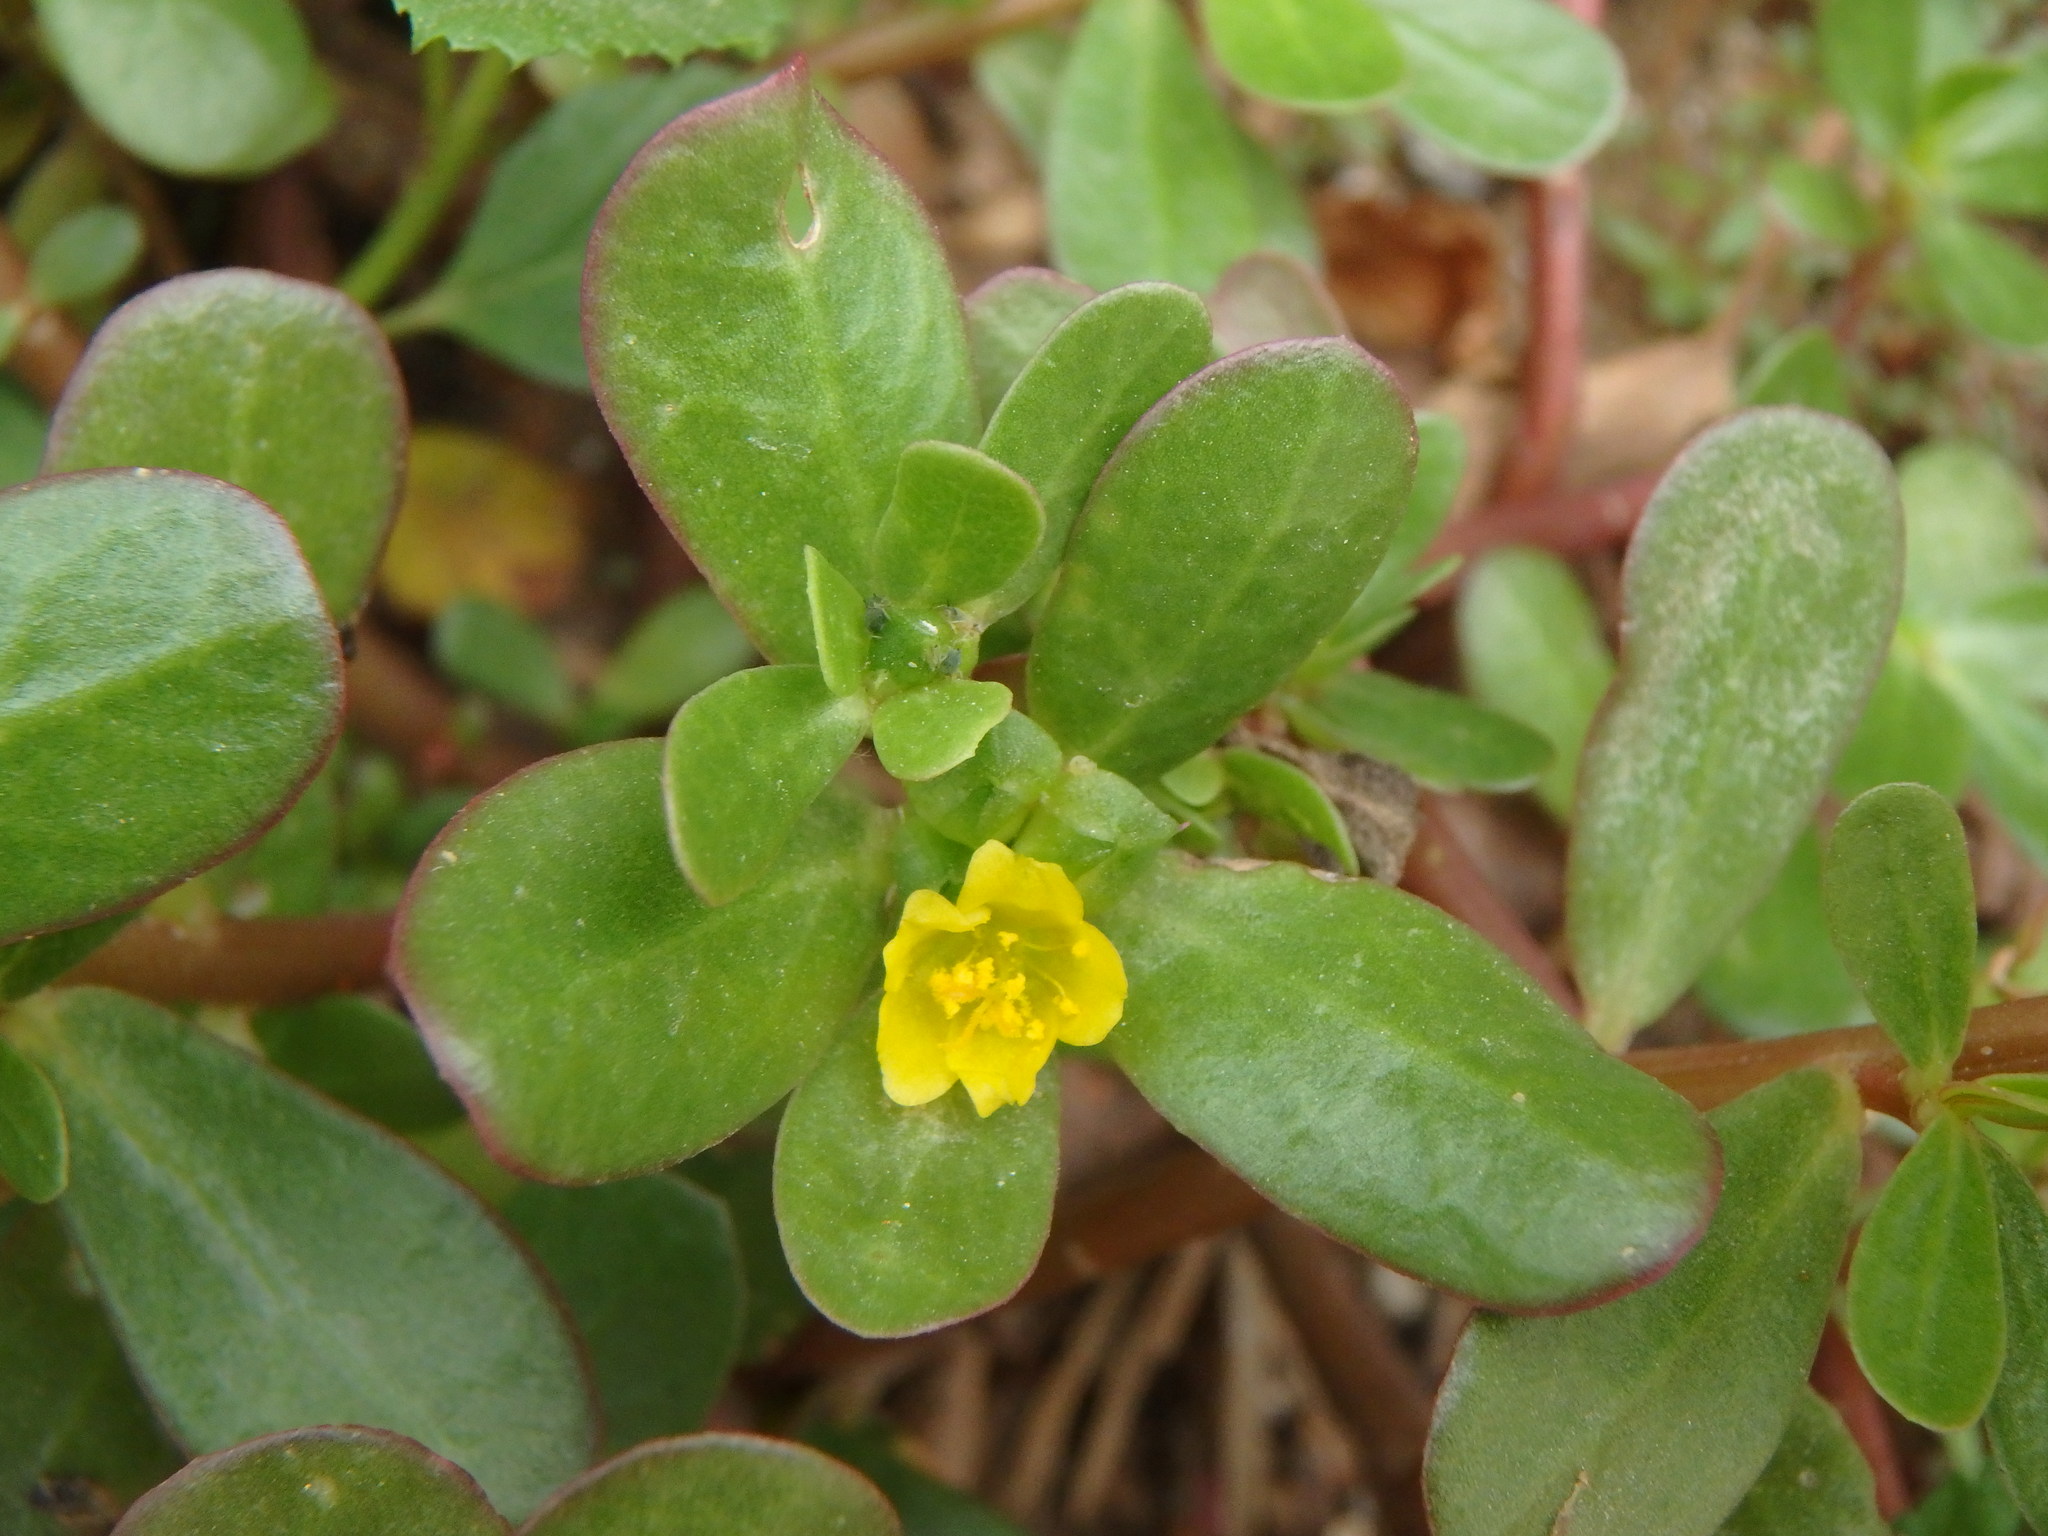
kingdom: Plantae
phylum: Tracheophyta
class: Magnoliopsida
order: Caryophyllales
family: Portulacaceae
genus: Portulaca
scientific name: Portulaca oleracea
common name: Common purslane
